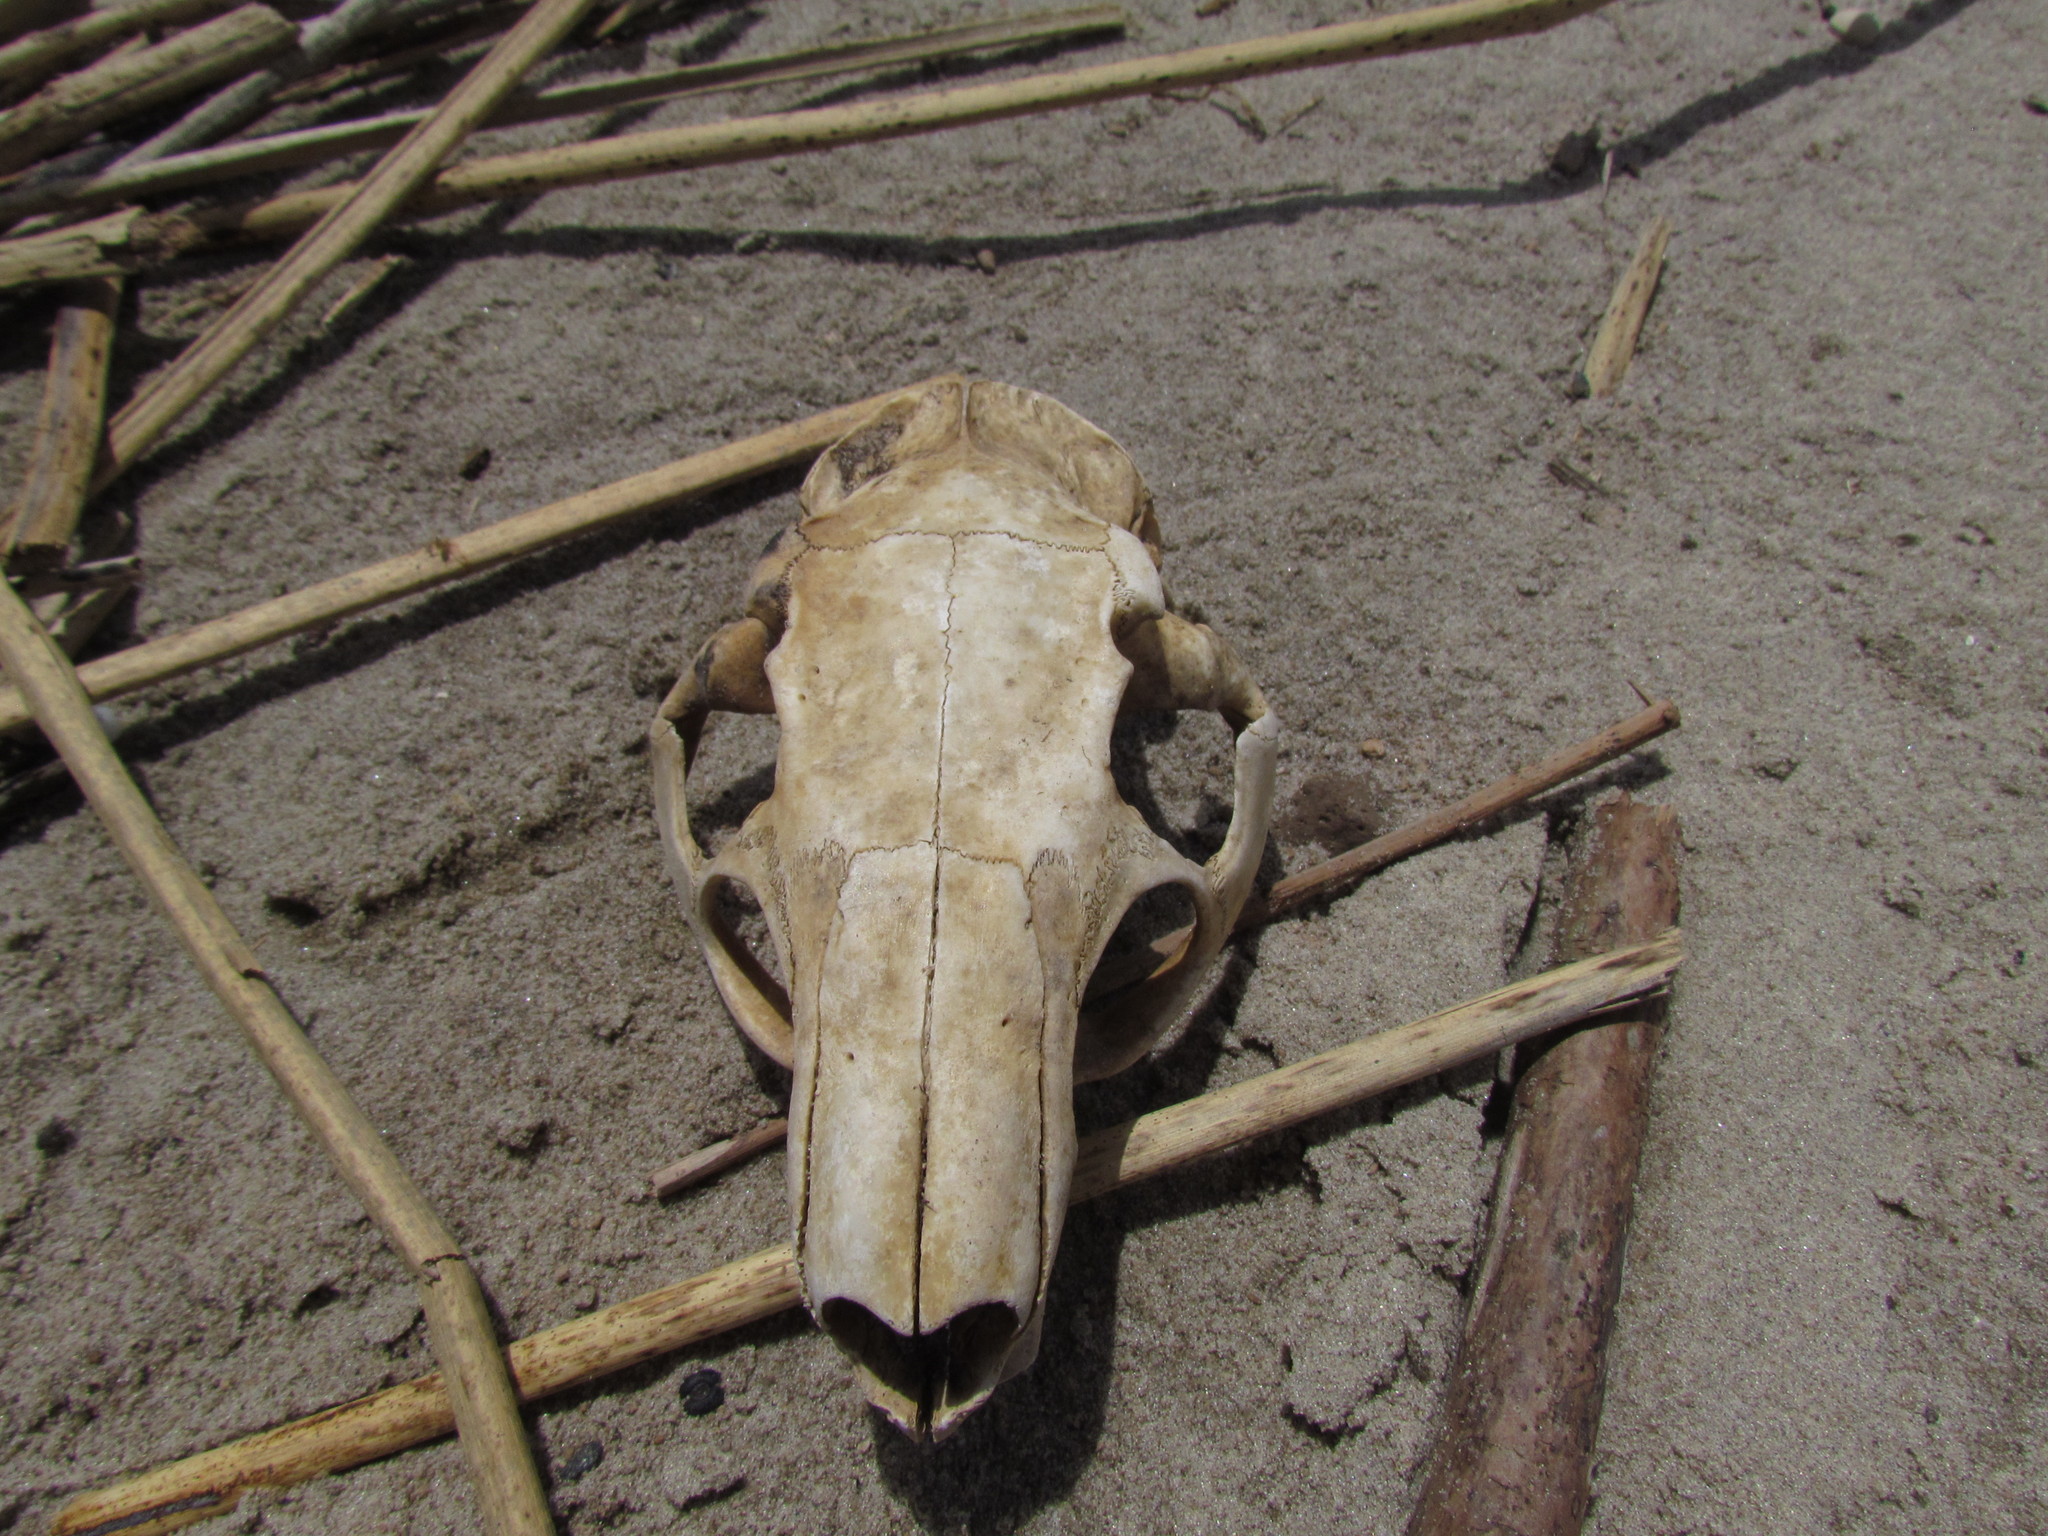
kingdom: Animalia
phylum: Chordata
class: Mammalia
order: Rodentia
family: Myocastoridae
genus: Myocastor
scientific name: Myocastor coypus
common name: Coypu
